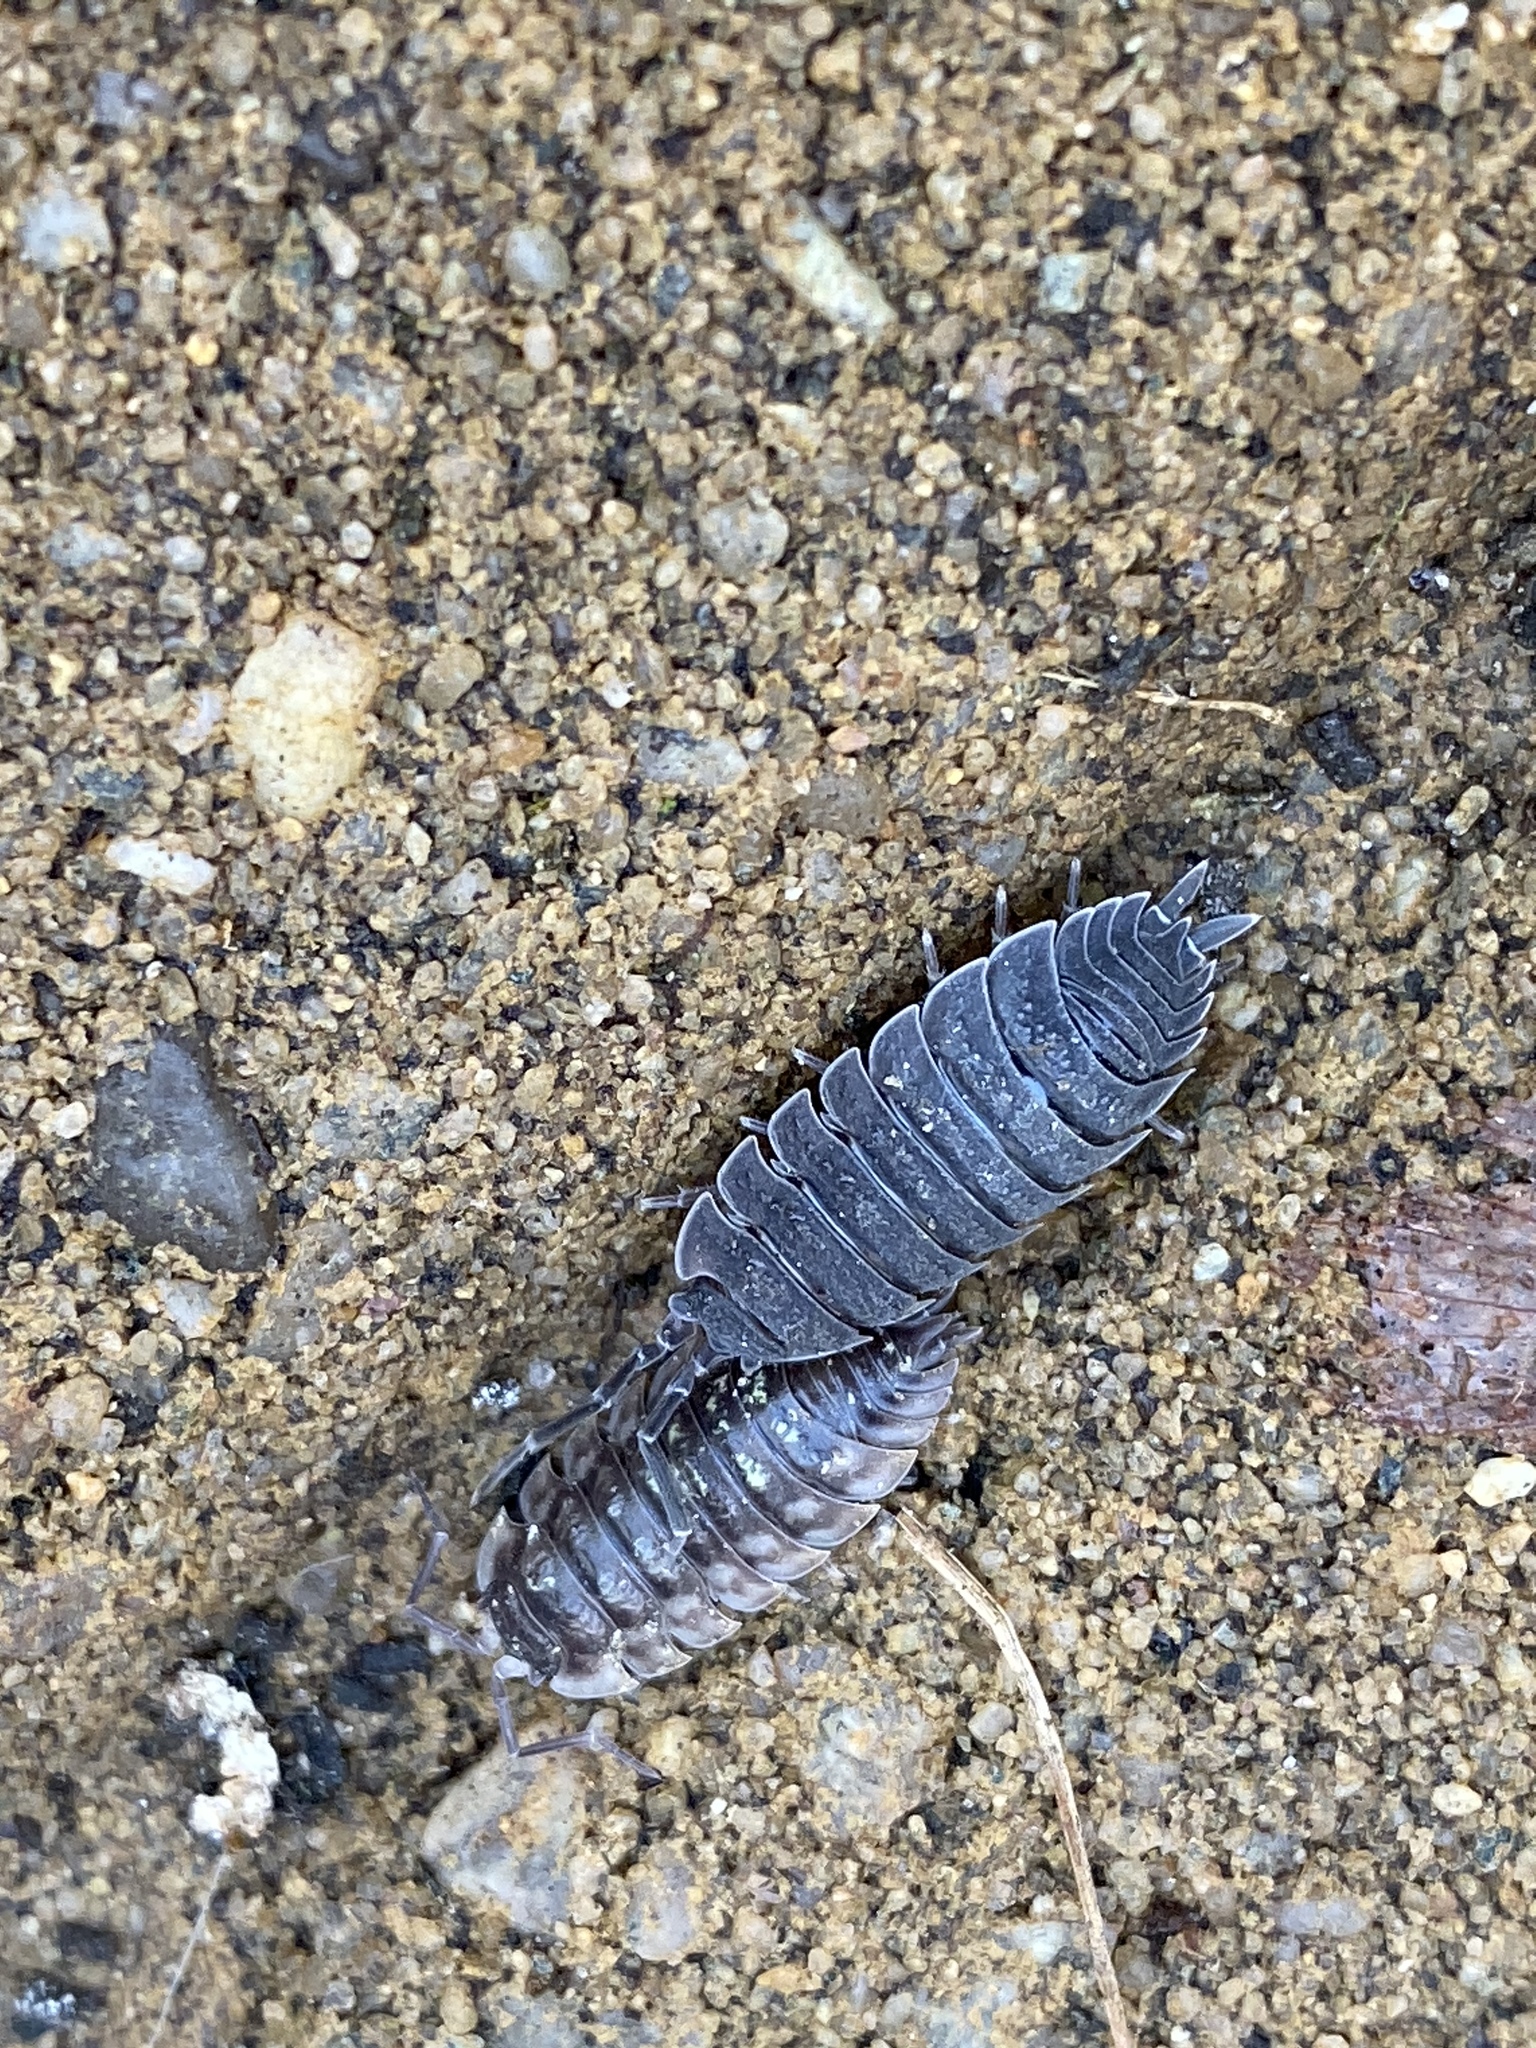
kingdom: Animalia
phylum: Arthropoda
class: Malacostraca
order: Isopoda
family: Porcellionidae
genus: Porcellio
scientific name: Porcellio scaber
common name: Common rough woodlouse
